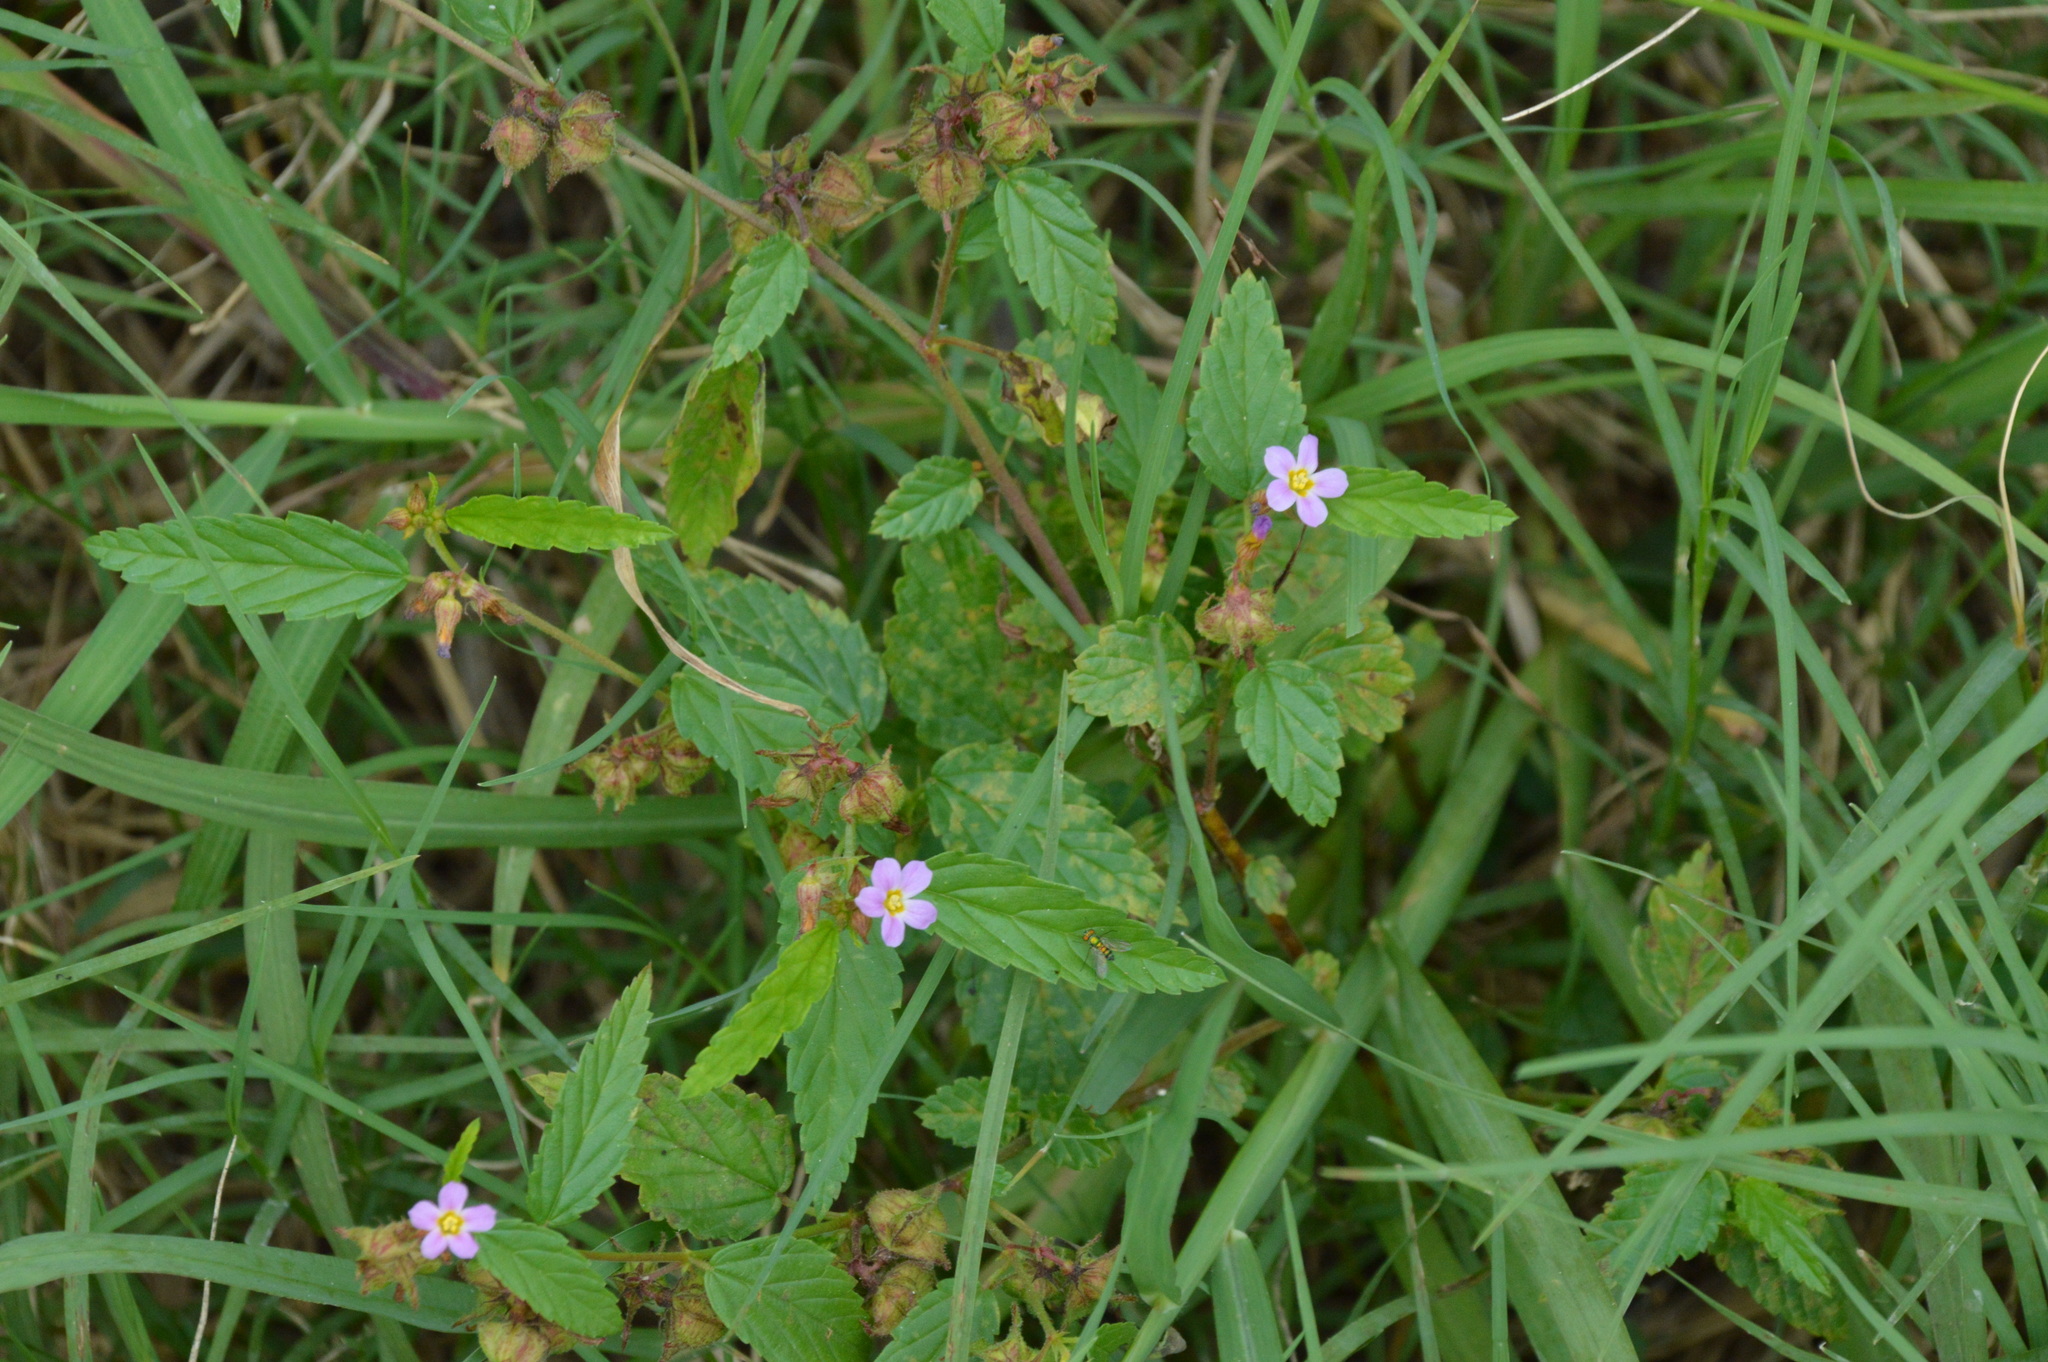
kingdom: Plantae
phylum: Tracheophyta
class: Magnoliopsida
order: Malvales
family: Malvaceae
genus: Melochia
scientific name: Melochia pyramidata
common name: Pyramidflower
